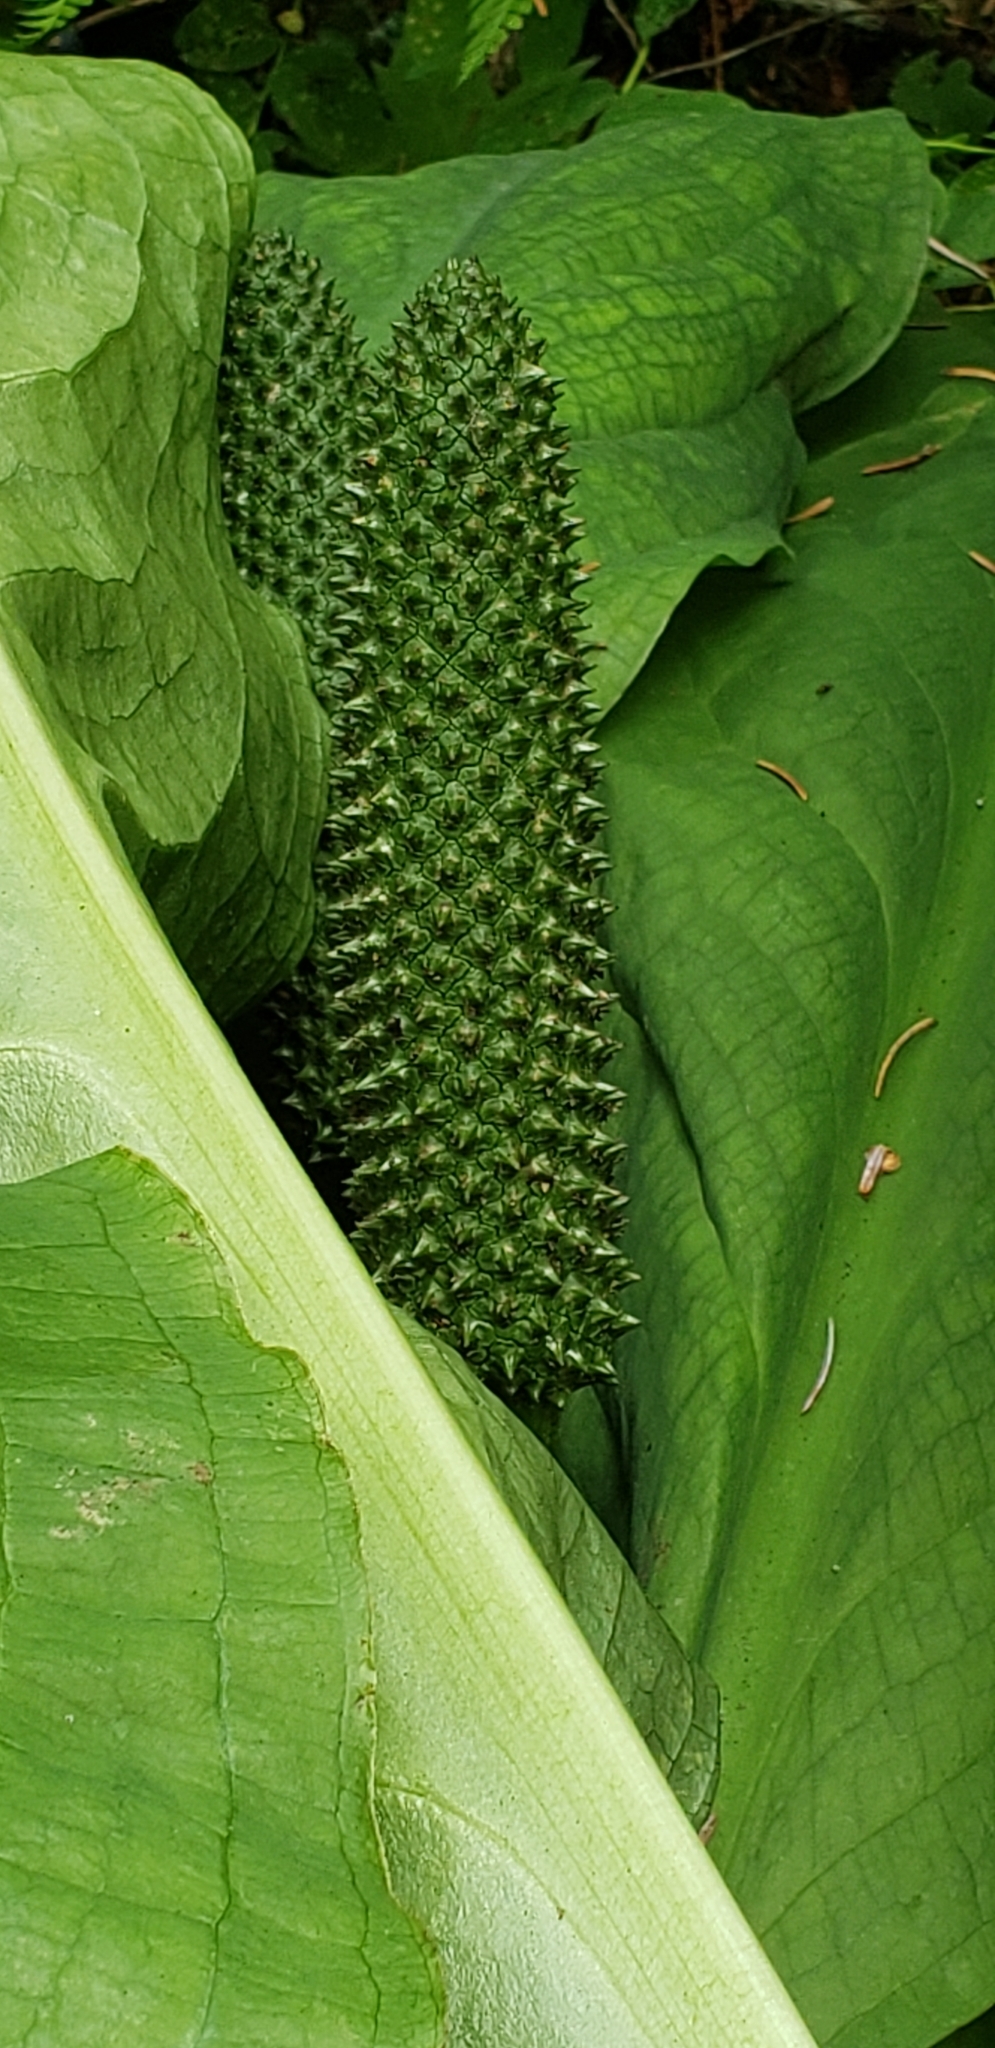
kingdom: Plantae
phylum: Tracheophyta
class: Liliopsida
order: Alismatales
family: Araceae
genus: Lysichiton
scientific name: Lysichiton americanus
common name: American skunk cabbage
